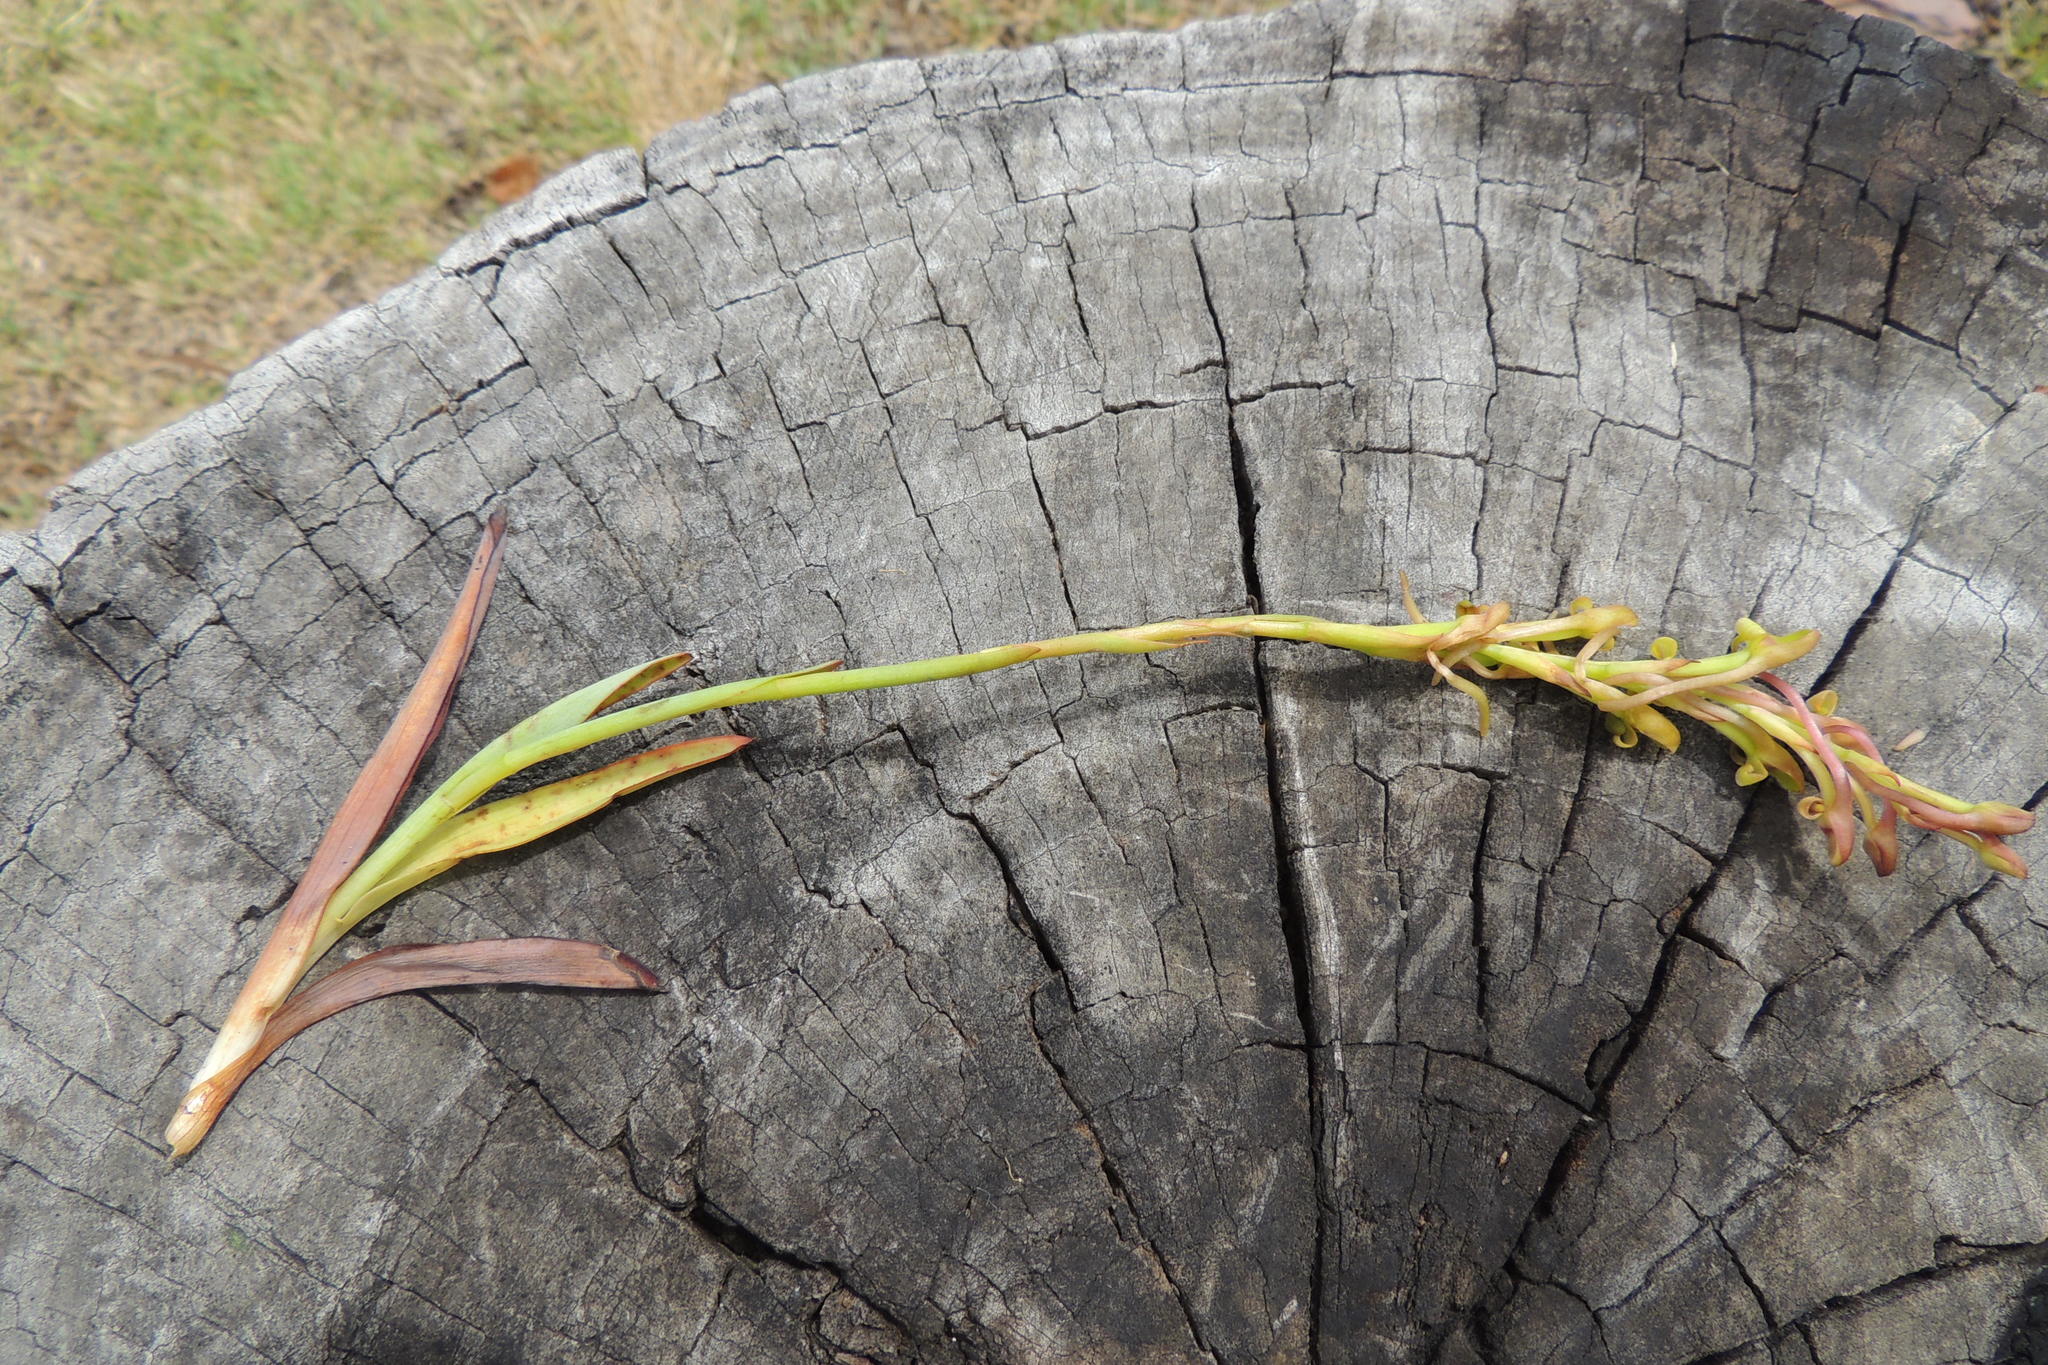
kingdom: Plantae
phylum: Tracheophyta
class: Liliopsida
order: Asparagales
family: Orchidaceae
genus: Disa
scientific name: Disa reticulata
